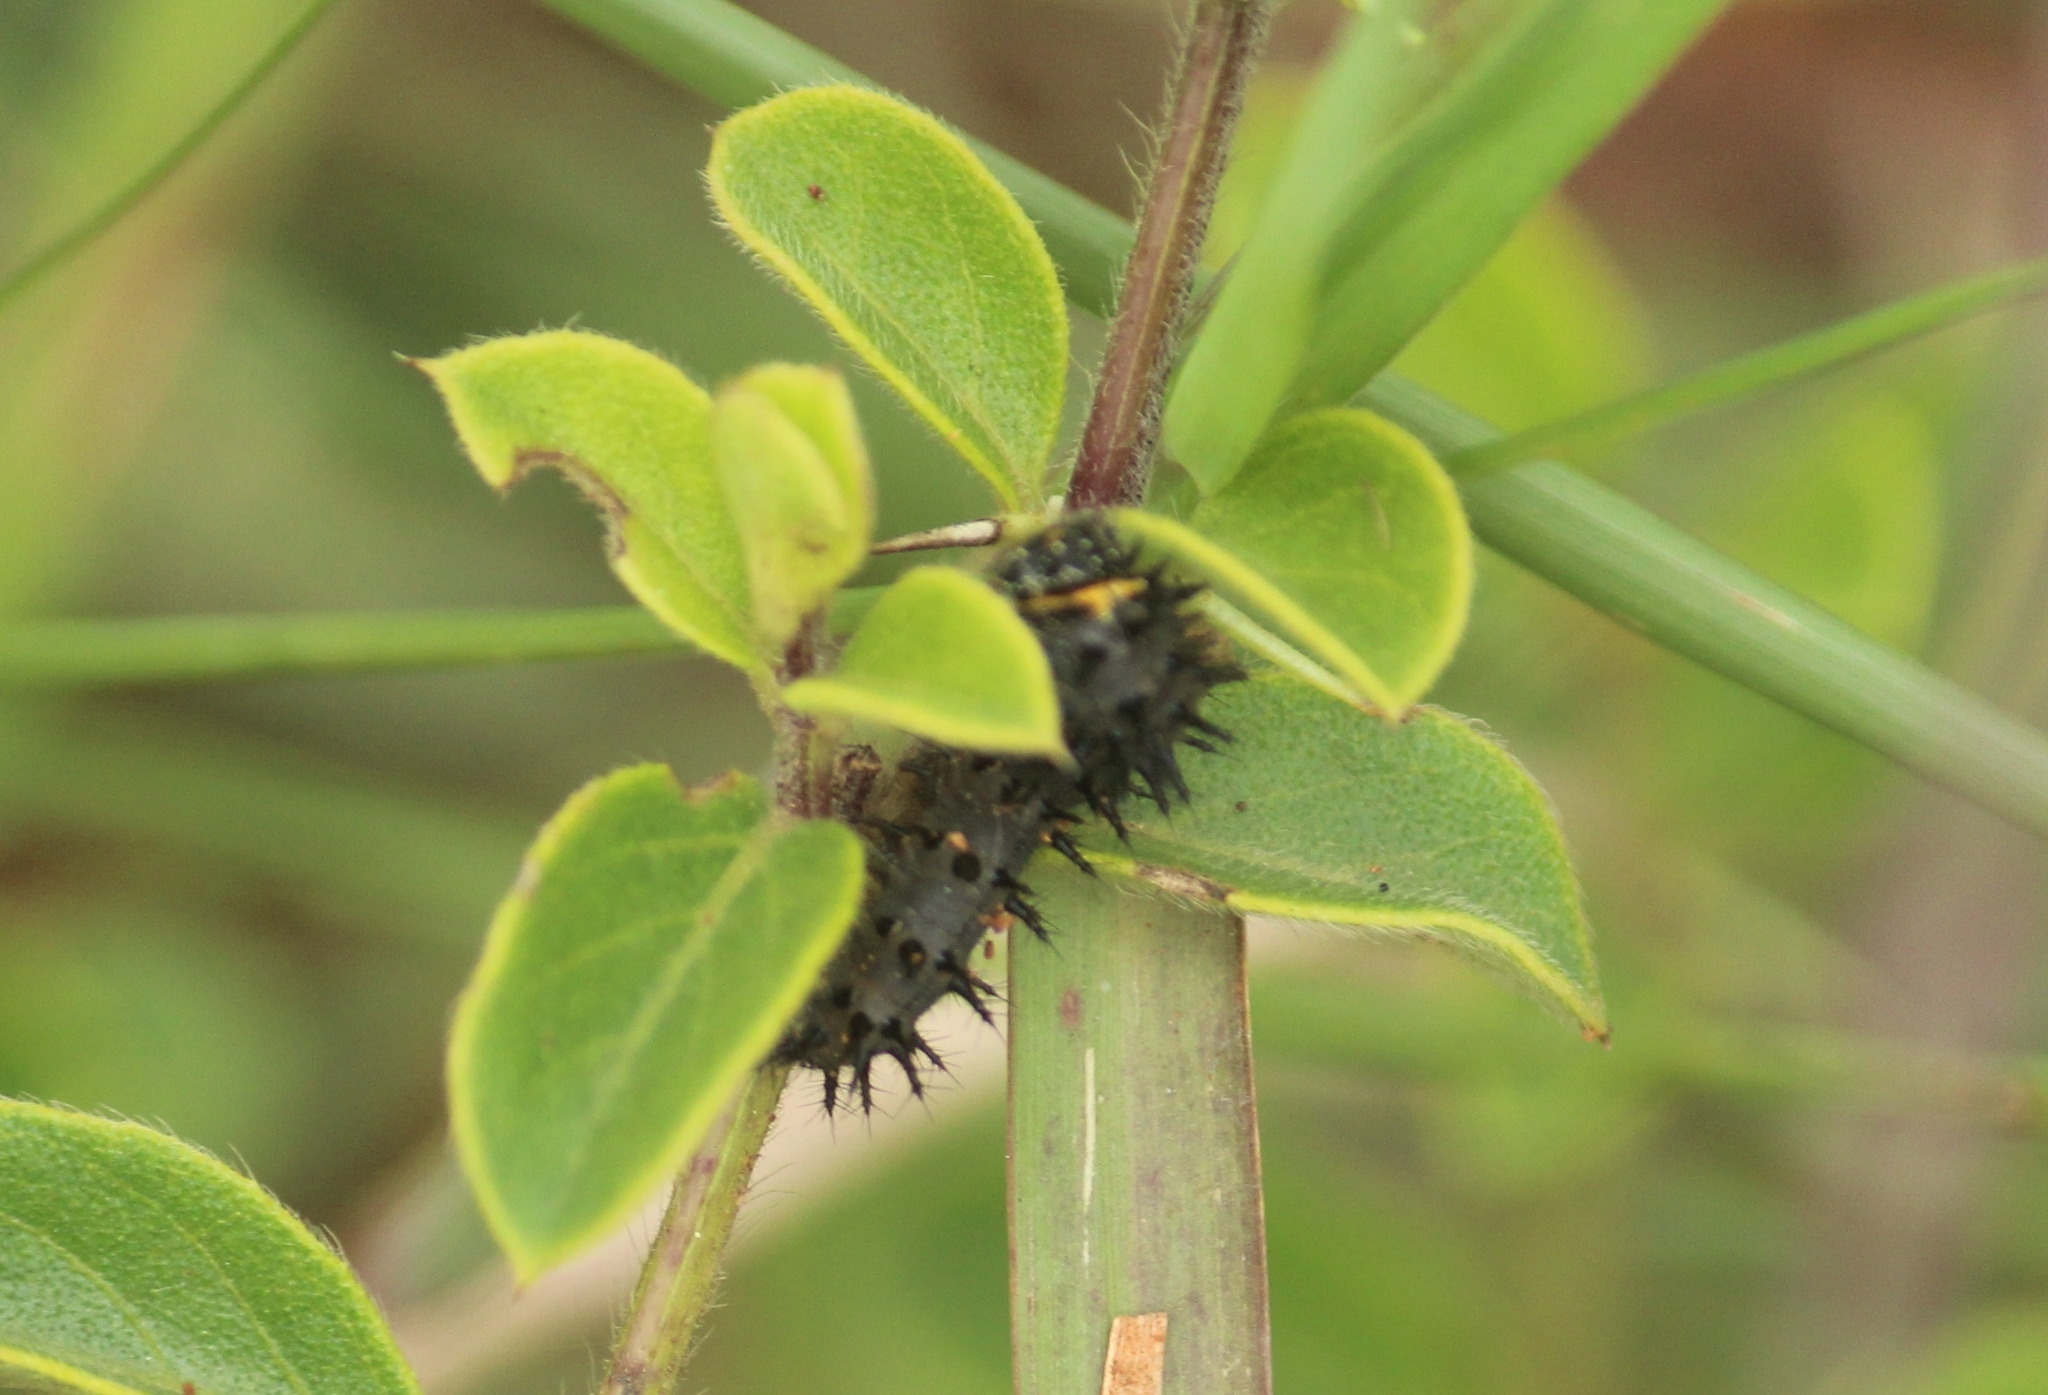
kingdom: Animalia
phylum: Arthropoda
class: Insecta
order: Lepidoptera
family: Nymphalidae
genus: Junonia
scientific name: Junonia orithya
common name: Blue pansy
